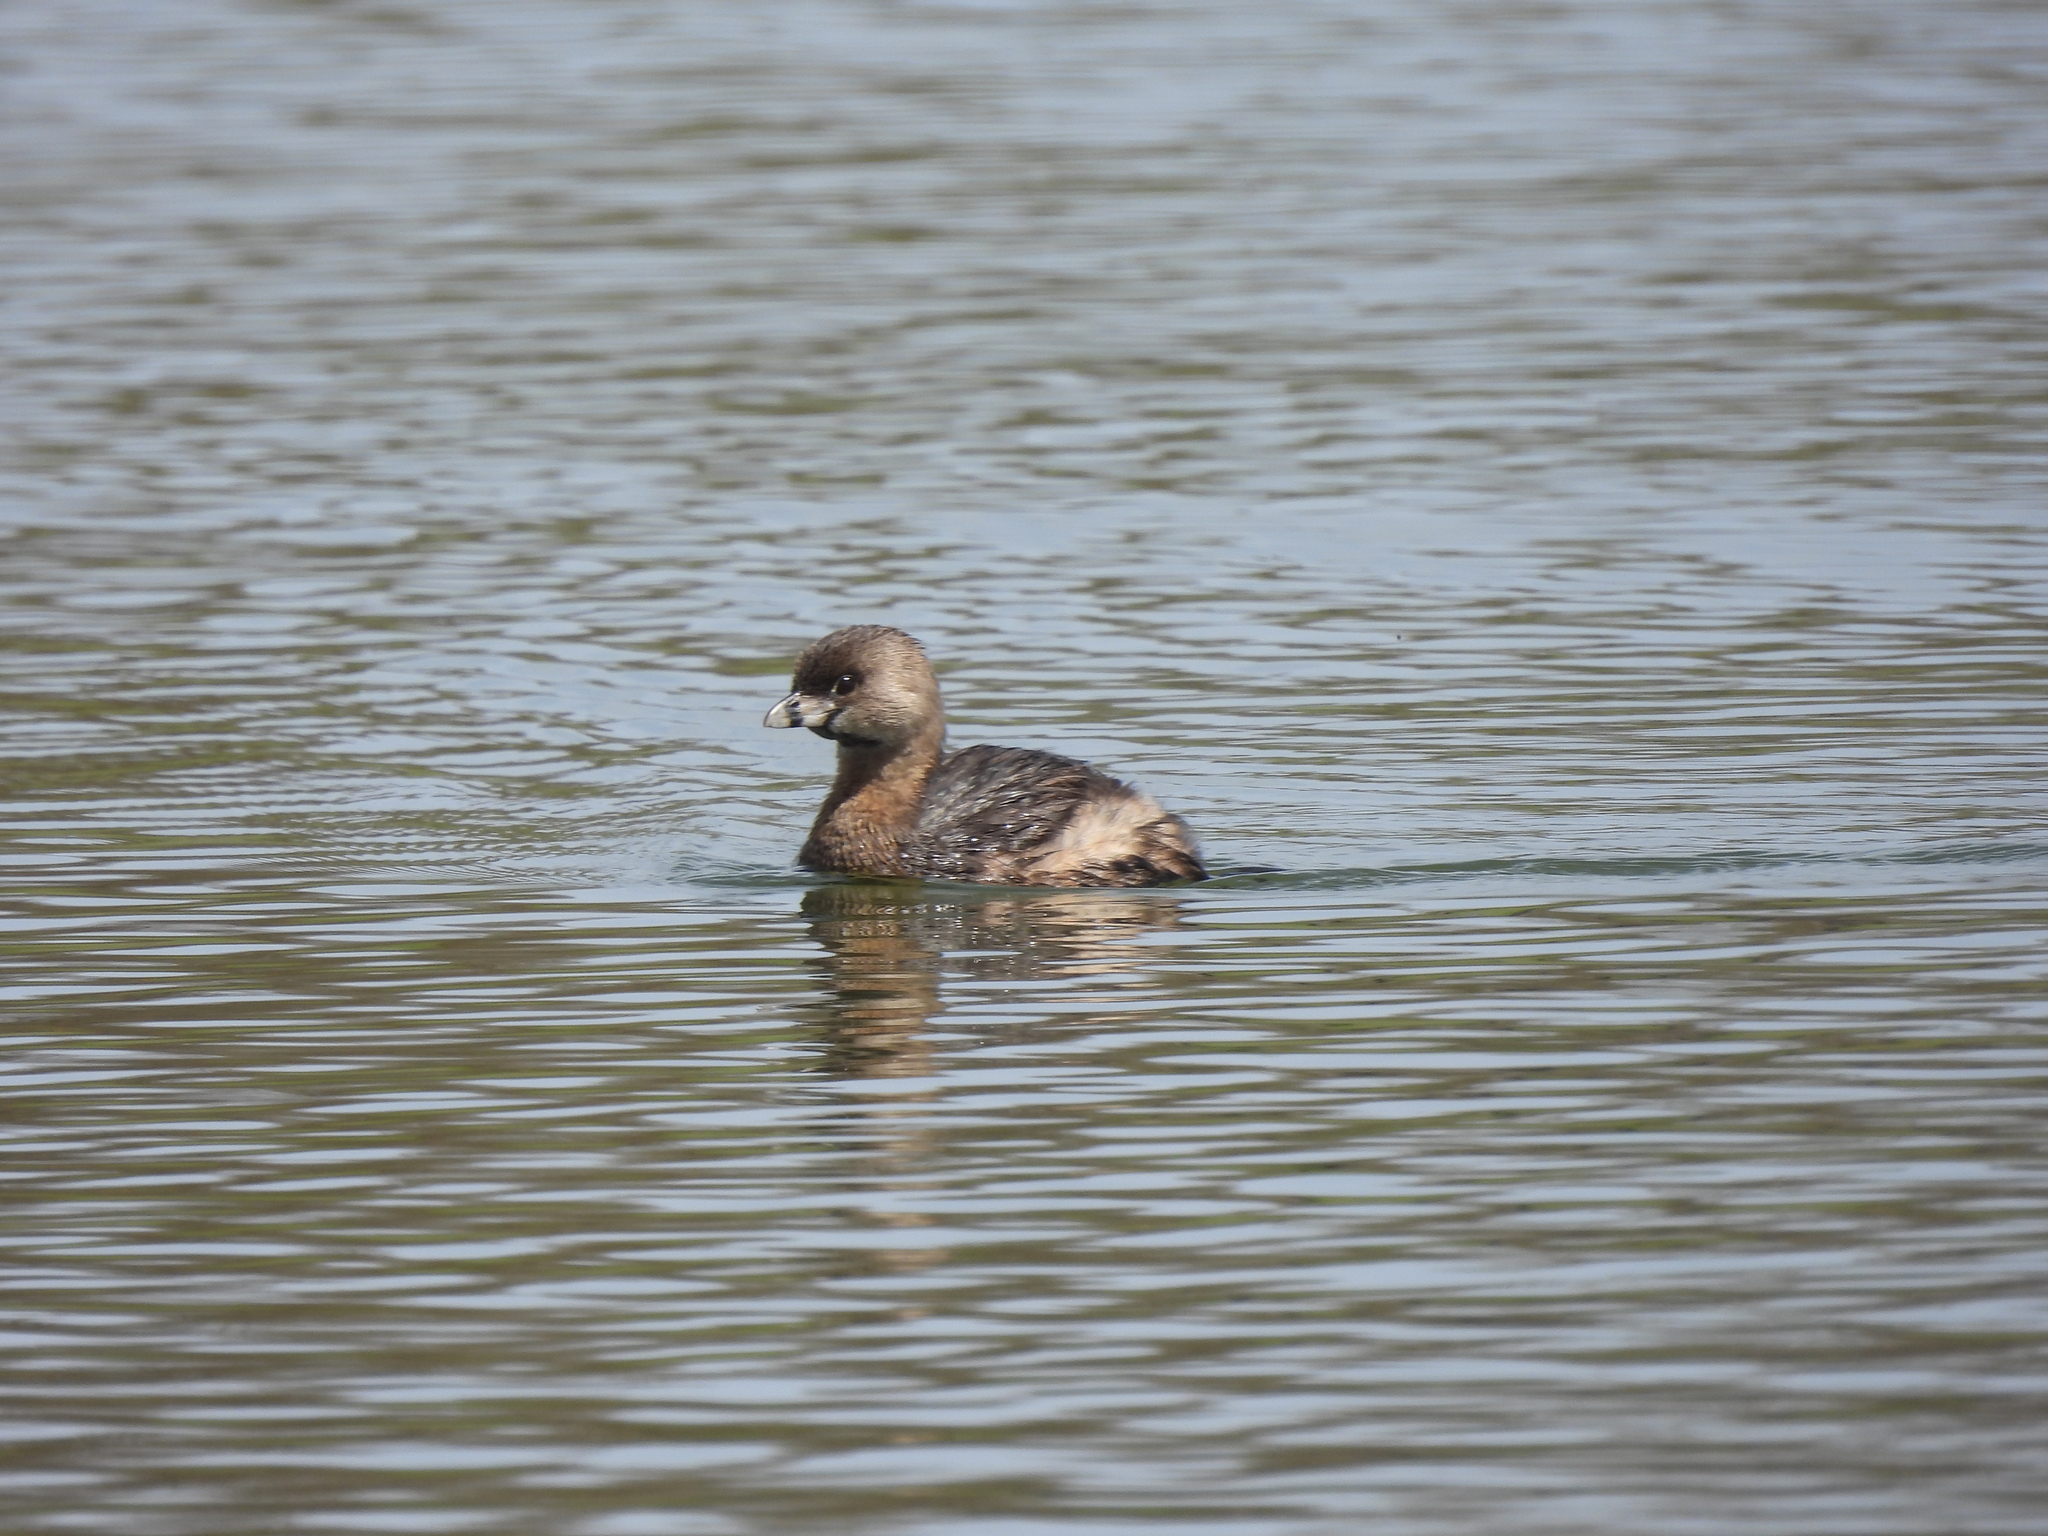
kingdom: Animalia
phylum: Chordata
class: Aves
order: Podicipediformes
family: Podicipedidae
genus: Podilymbus
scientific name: Podilymbus podiceps
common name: Pied-billed grebe
